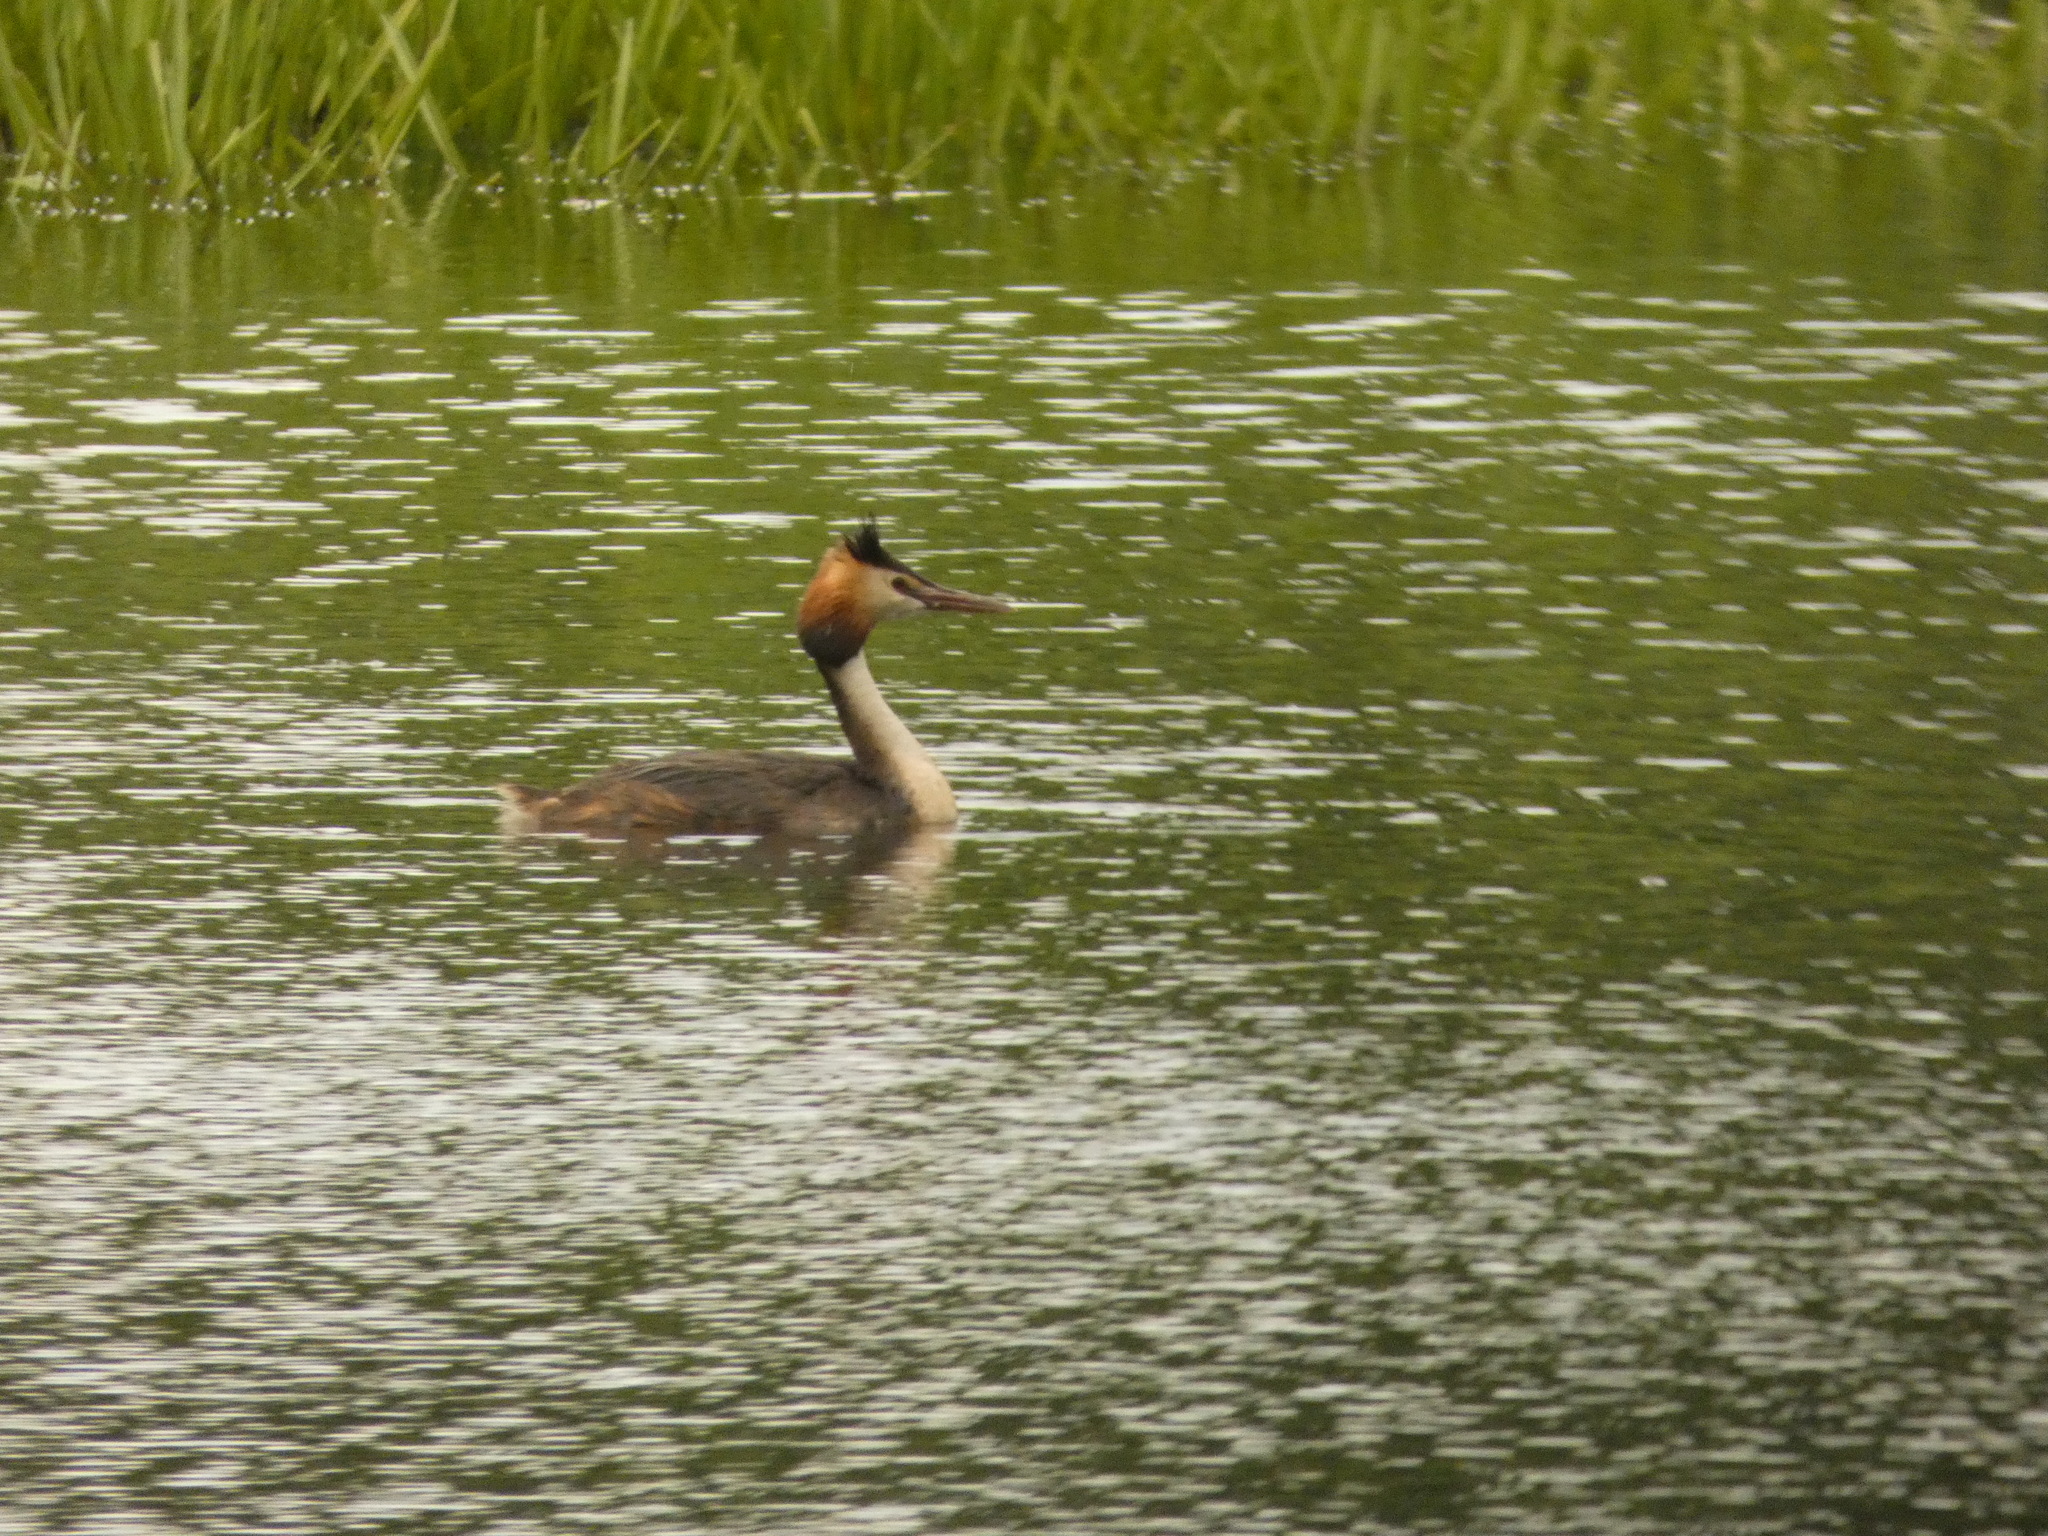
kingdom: Animalia
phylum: Chordata
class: Aves
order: Podicipediformes
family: Podicipedidae
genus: Podiceps
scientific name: Podiceps cristatus
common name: Great crested grebe
